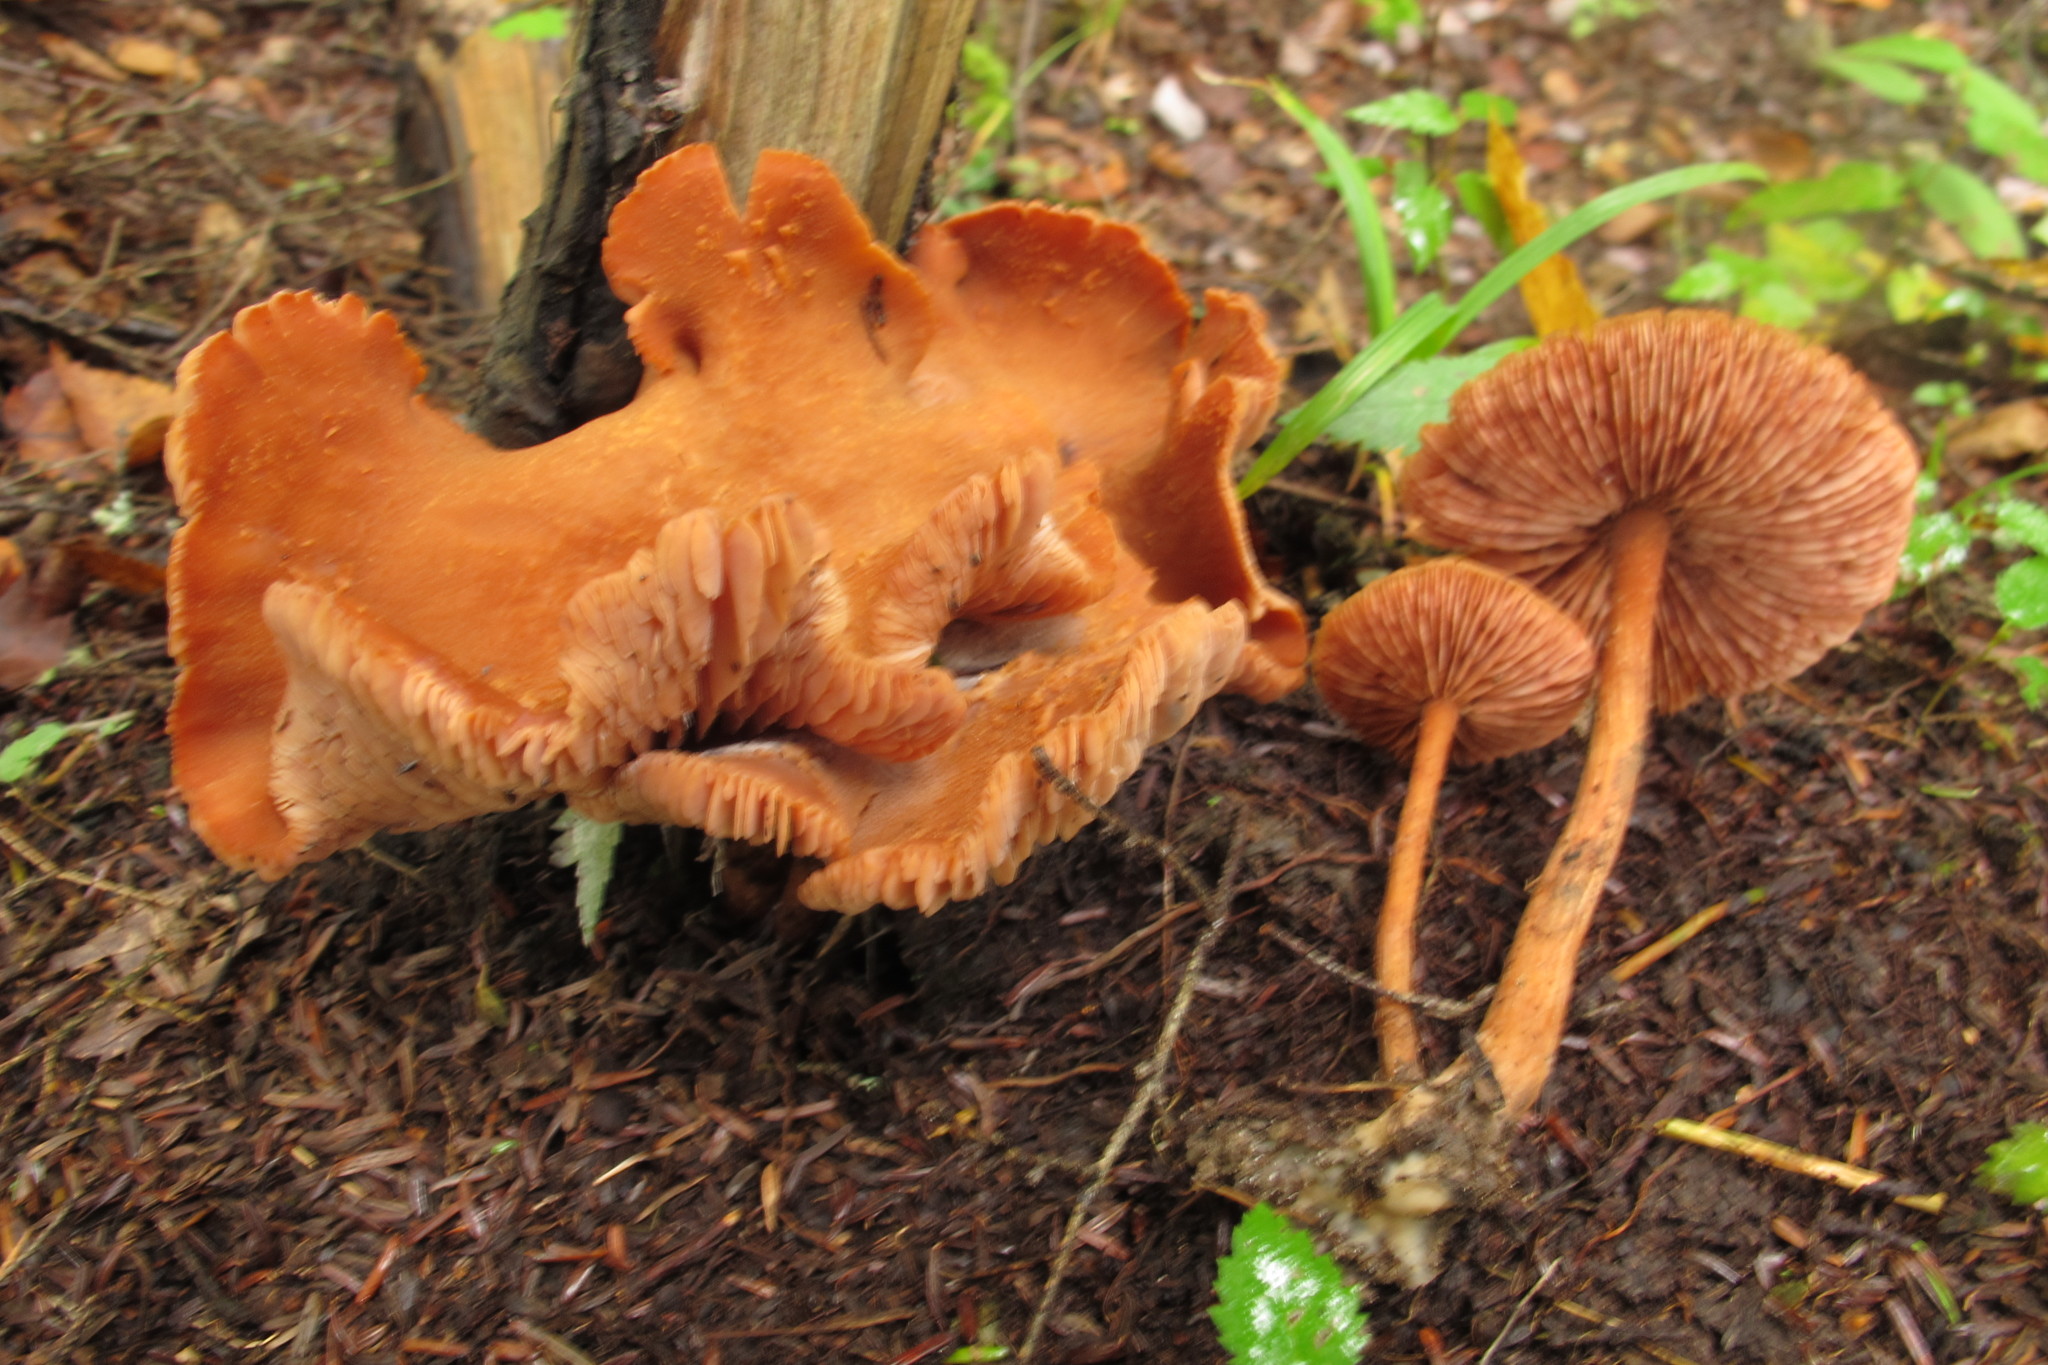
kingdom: Fungi
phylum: Basidiomycota
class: Agaricomycetes
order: Agaricales
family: Hydnangiaceae
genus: Laccaria
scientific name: Laccaria proxima
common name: Scurfy deceiver
